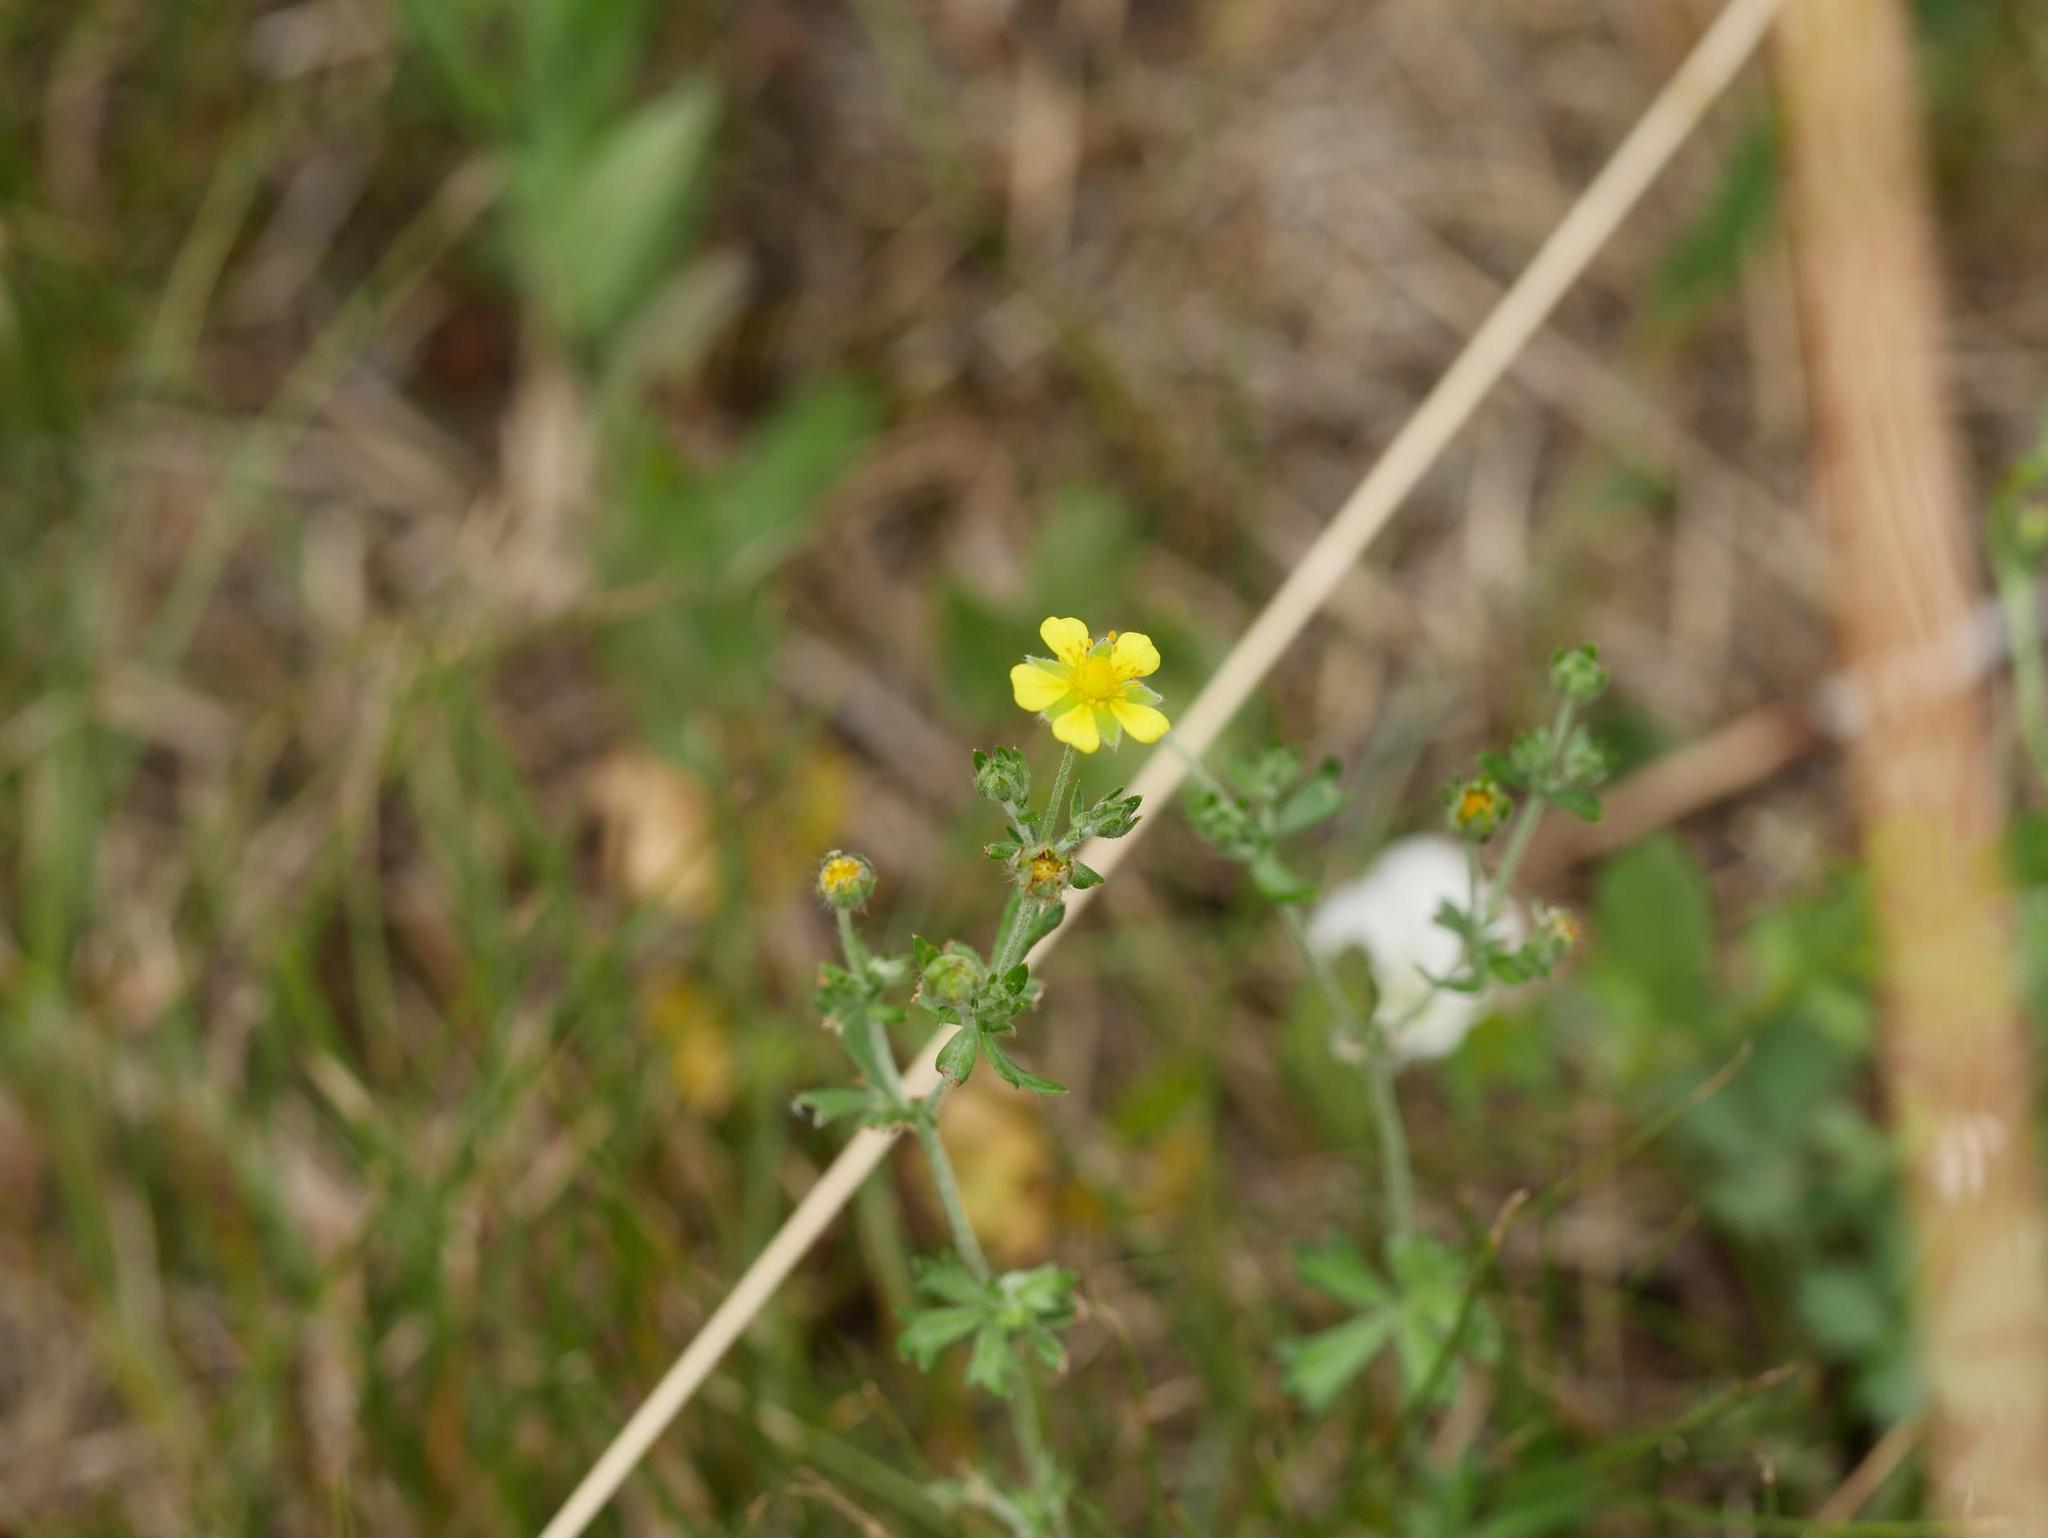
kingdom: Plantae
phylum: Tracheophyta
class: Magnoliopsida
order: Rosales
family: Rosaceae
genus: Potentilla
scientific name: Potentilla argentea
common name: Hoary cinquefoil
